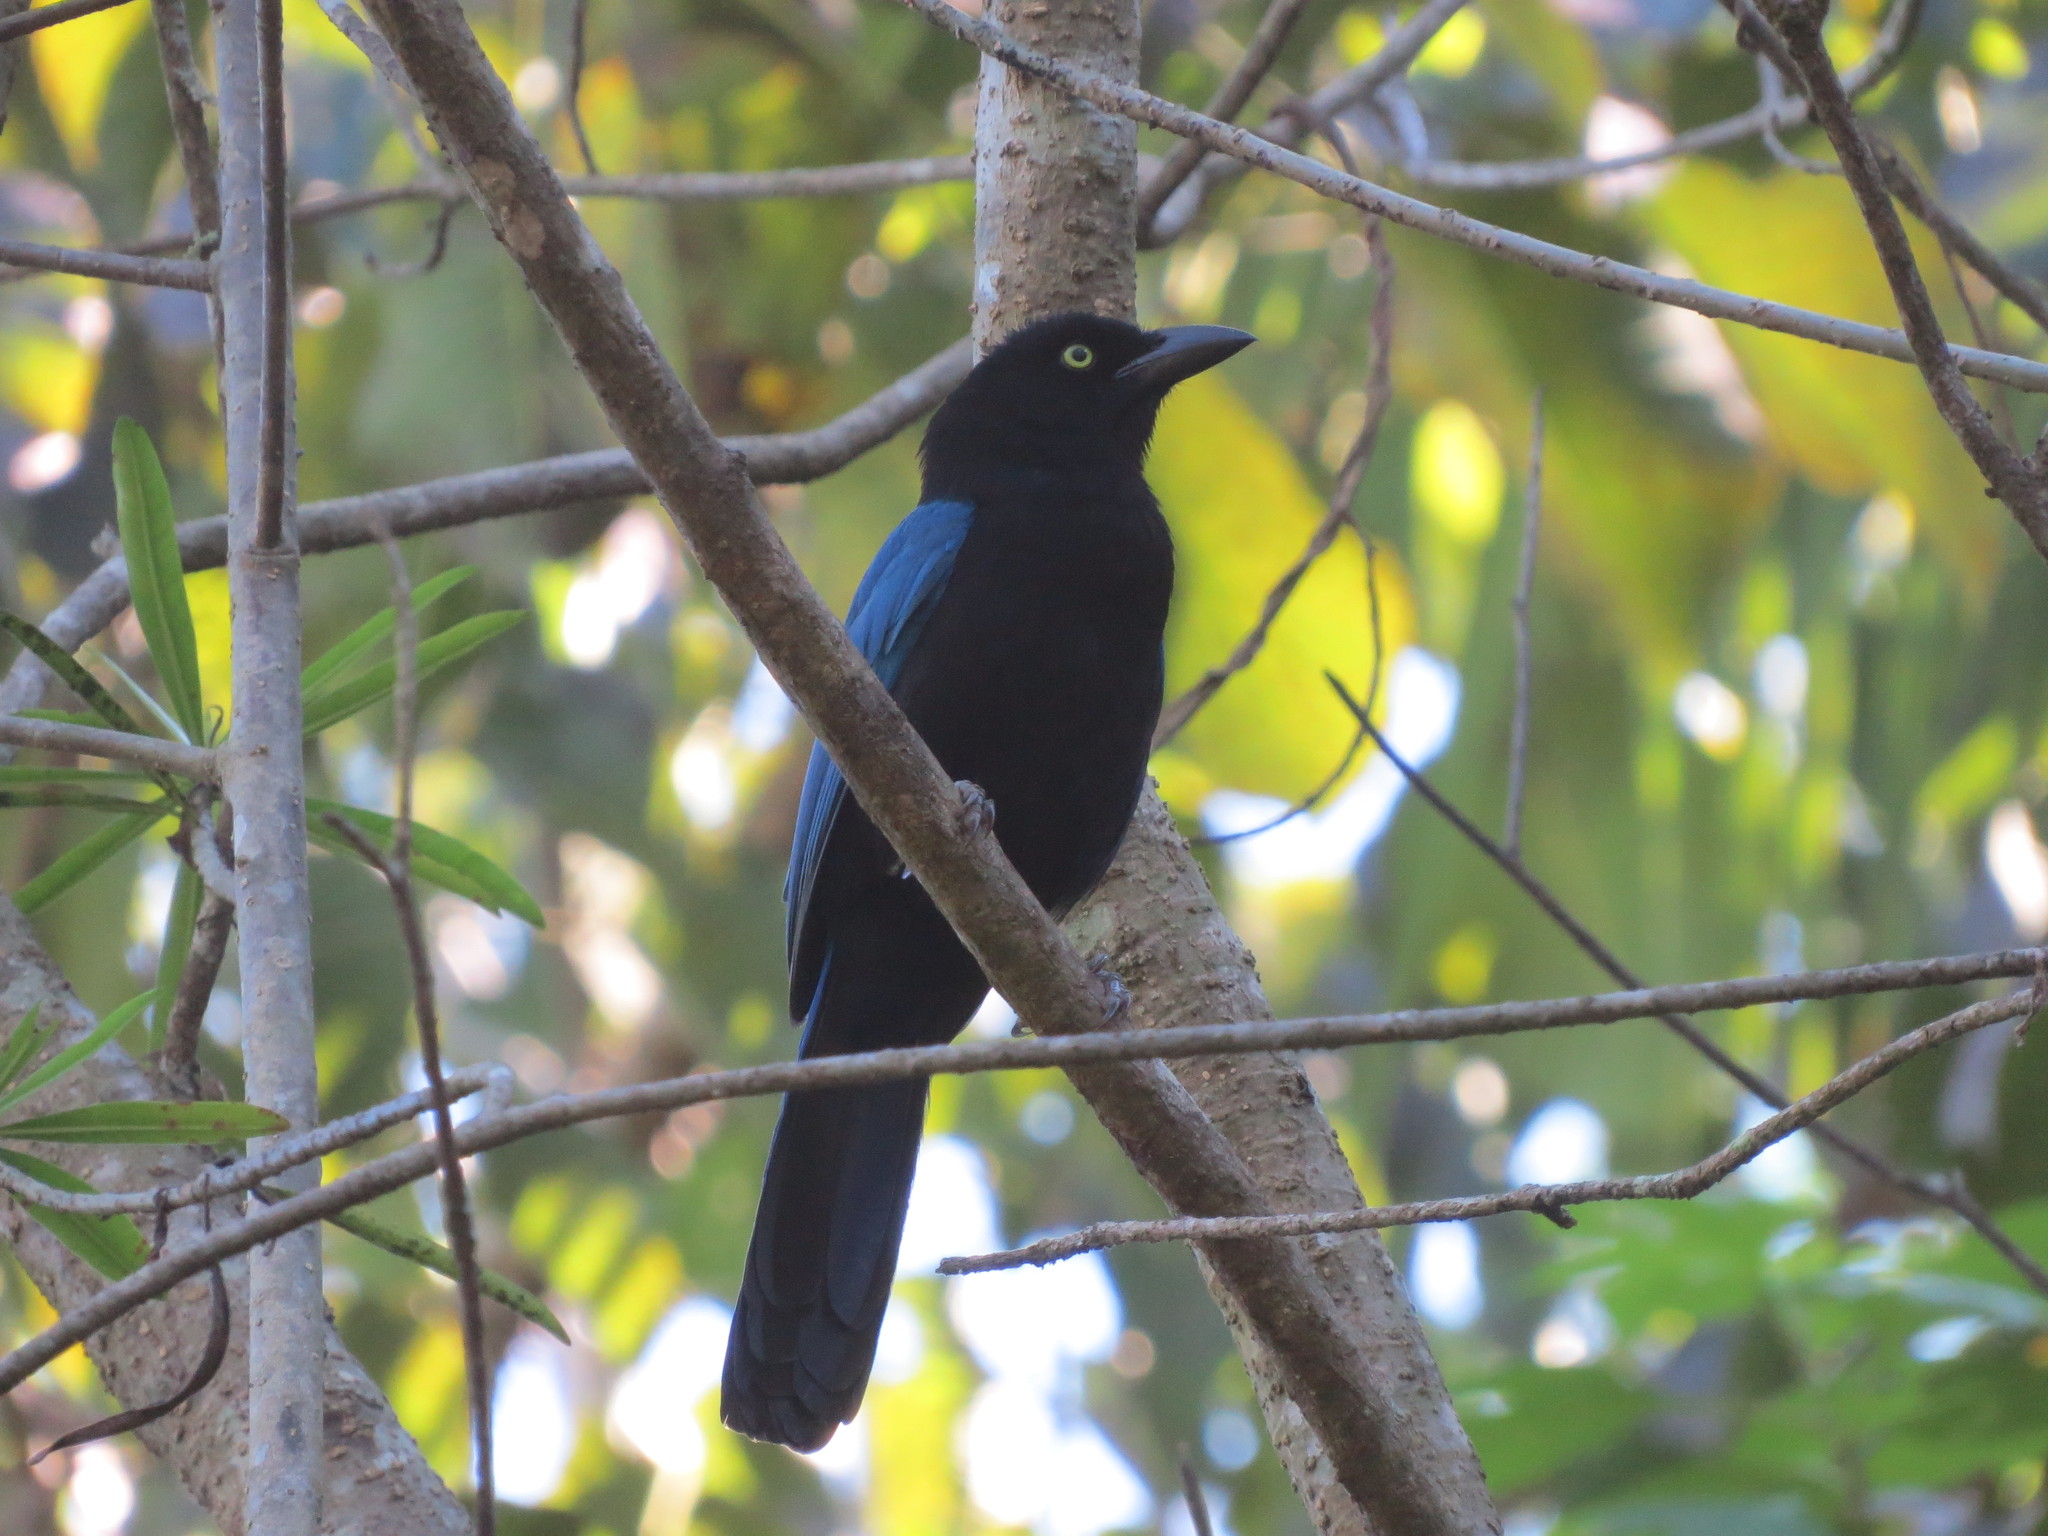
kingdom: Animalia
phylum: Chordata
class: Aves
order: Passeriformes
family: Corvidae
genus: Cyanocorax
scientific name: Cyanocorax sanblasianus
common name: San blas jay
